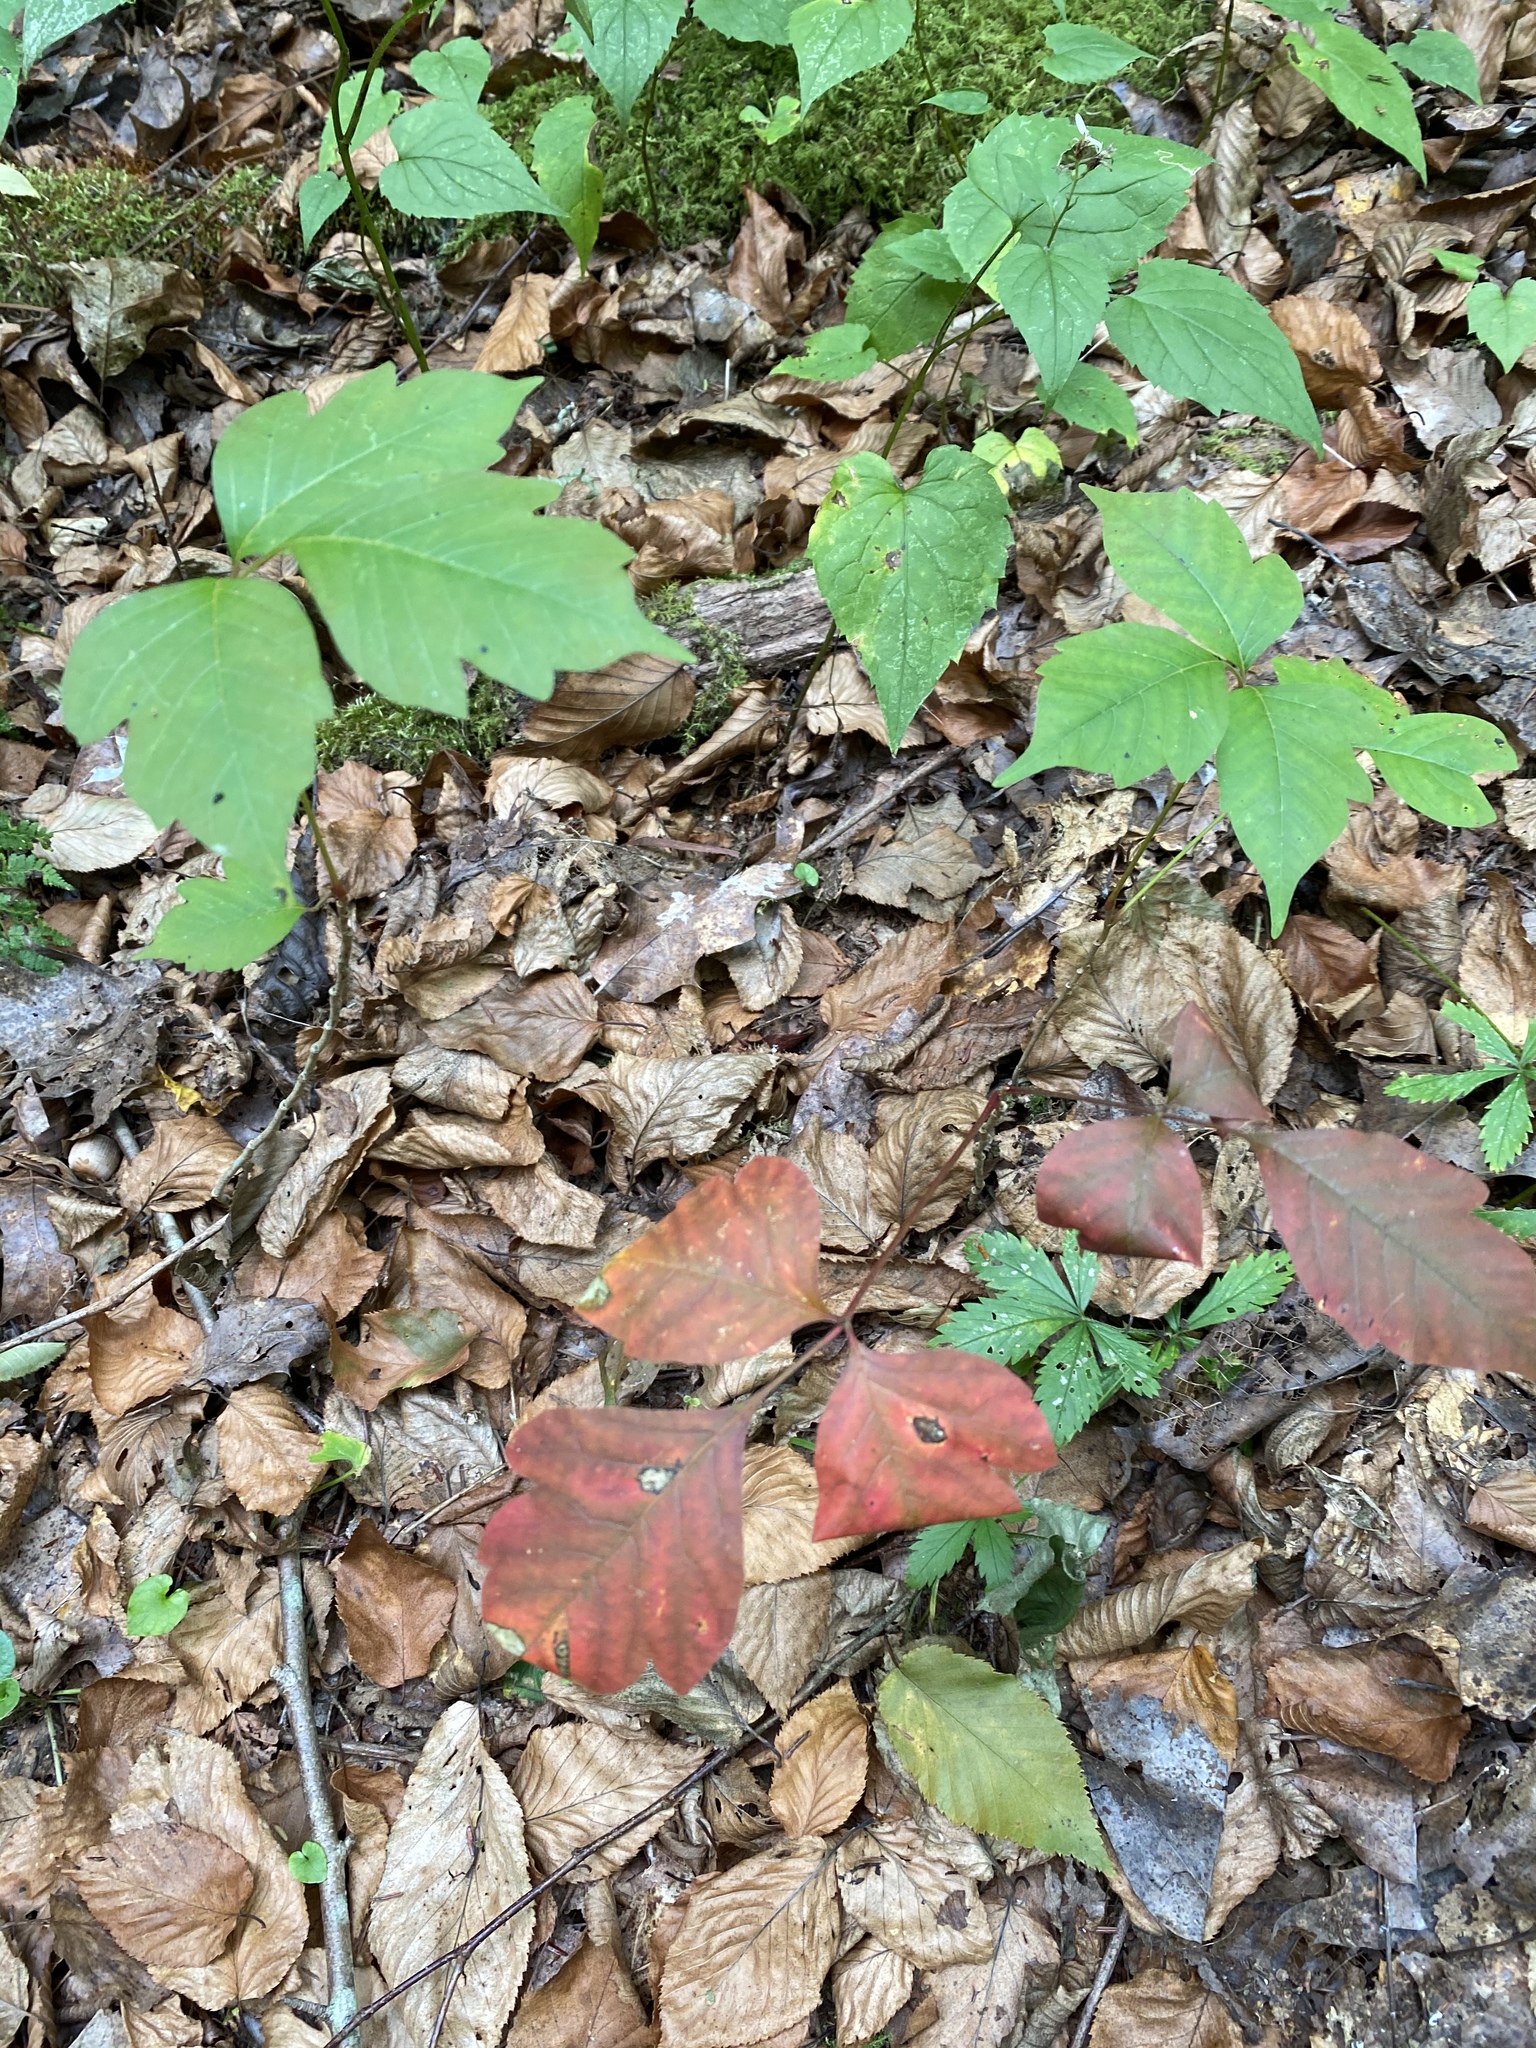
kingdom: Plantae
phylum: Tracheophyta
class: Magnoliopsida
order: Sapindales
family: Anacardiaceae
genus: Toxicodendron
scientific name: Toxicodendron radicans
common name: Poison ivy
